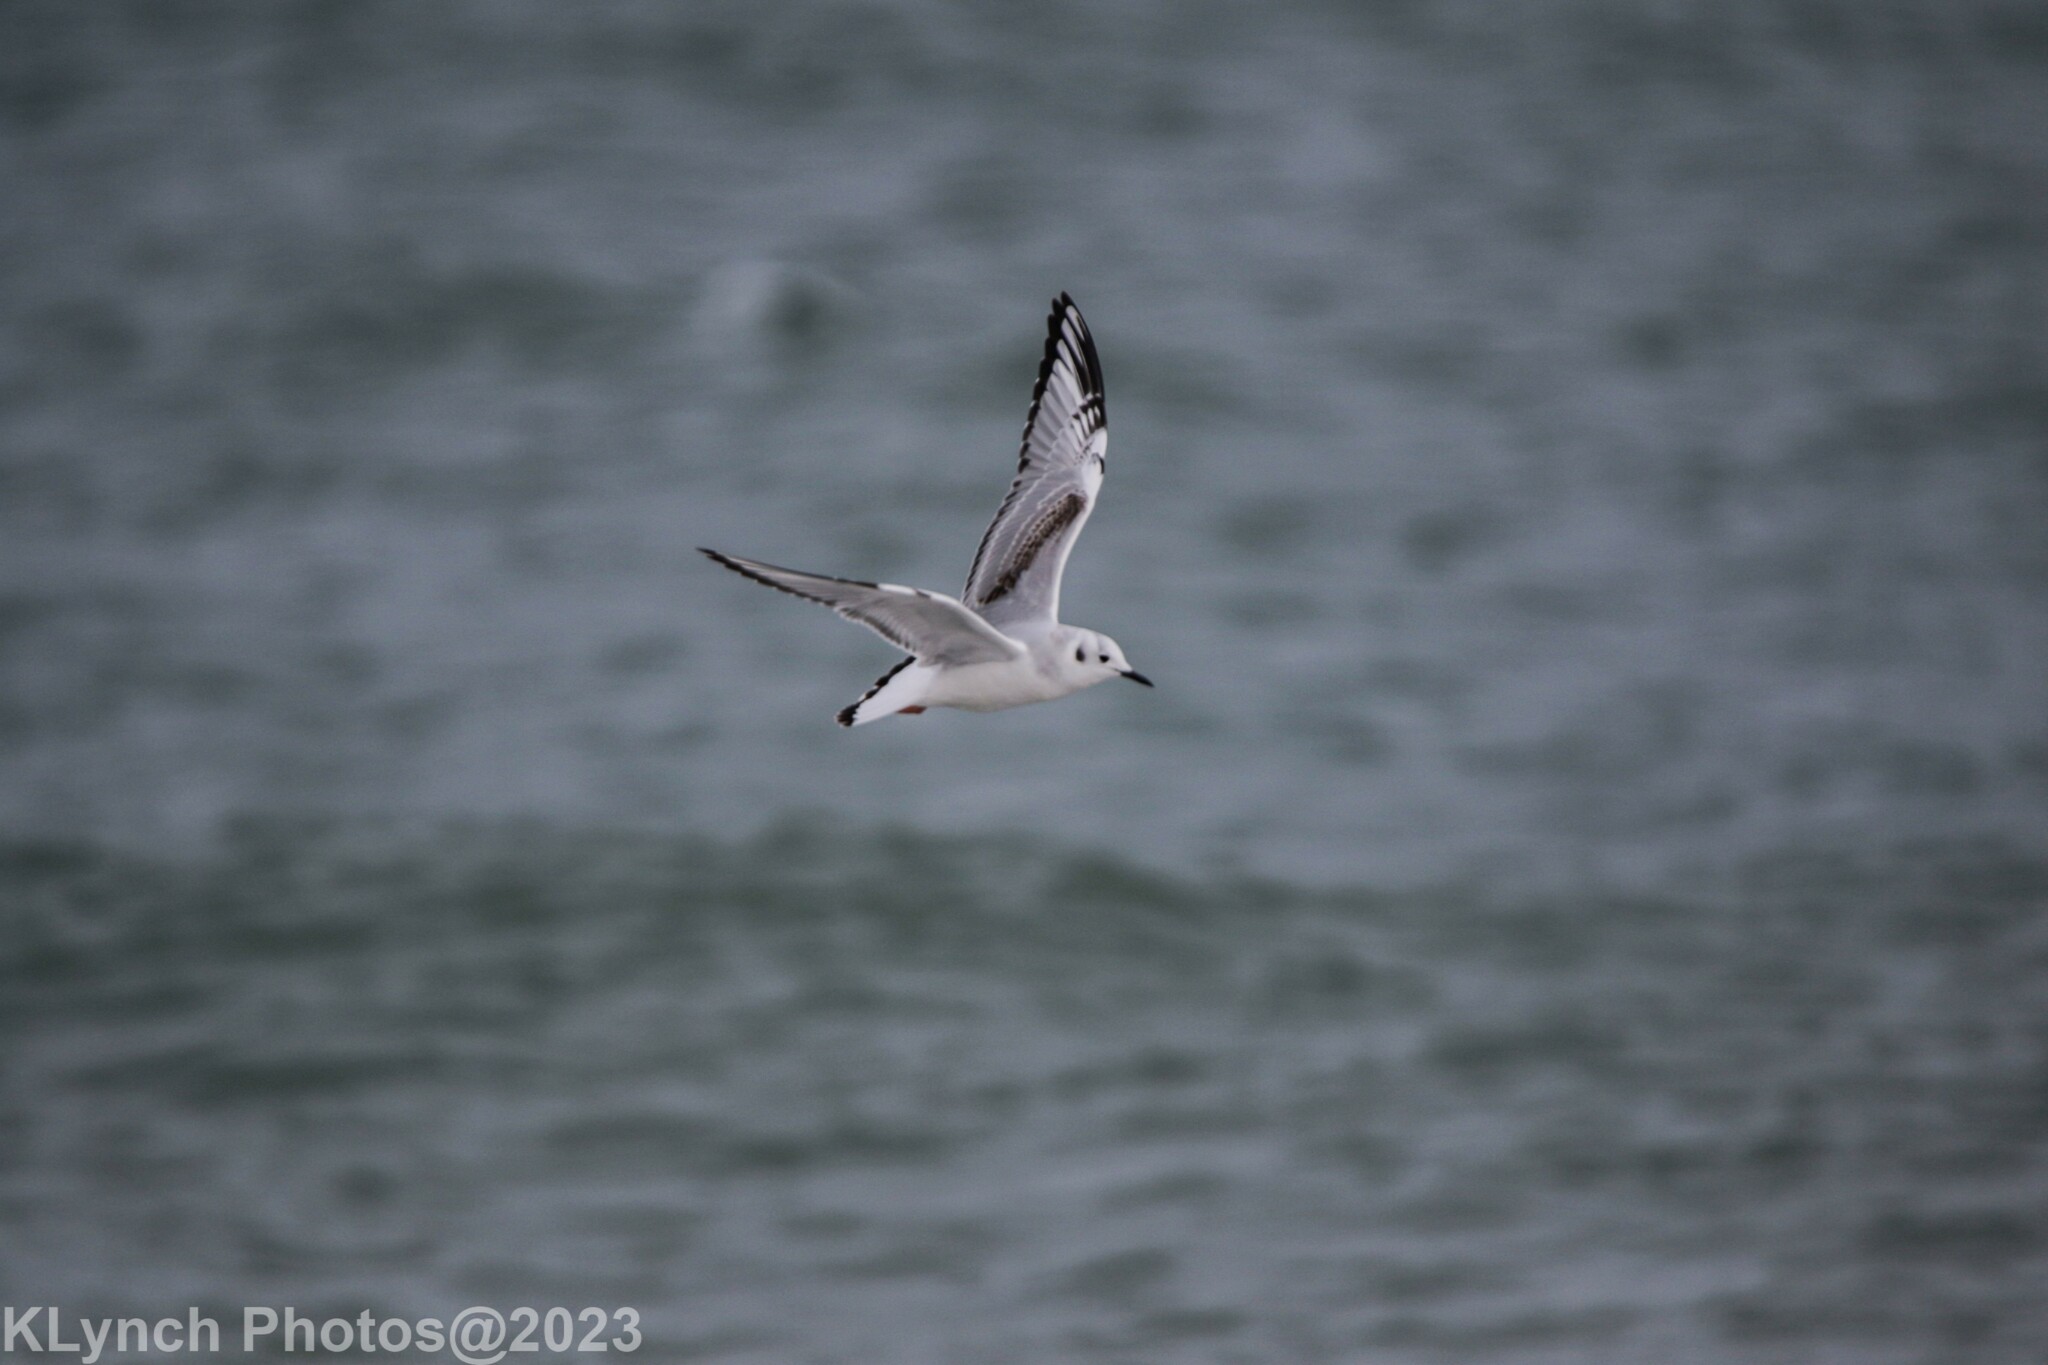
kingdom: Animalia
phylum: Chordata
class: Aves
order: Charadriiformes
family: Laridae
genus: Chroicocephalus
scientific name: Chroicocephalus philadelphia
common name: Bonaparte's gull
